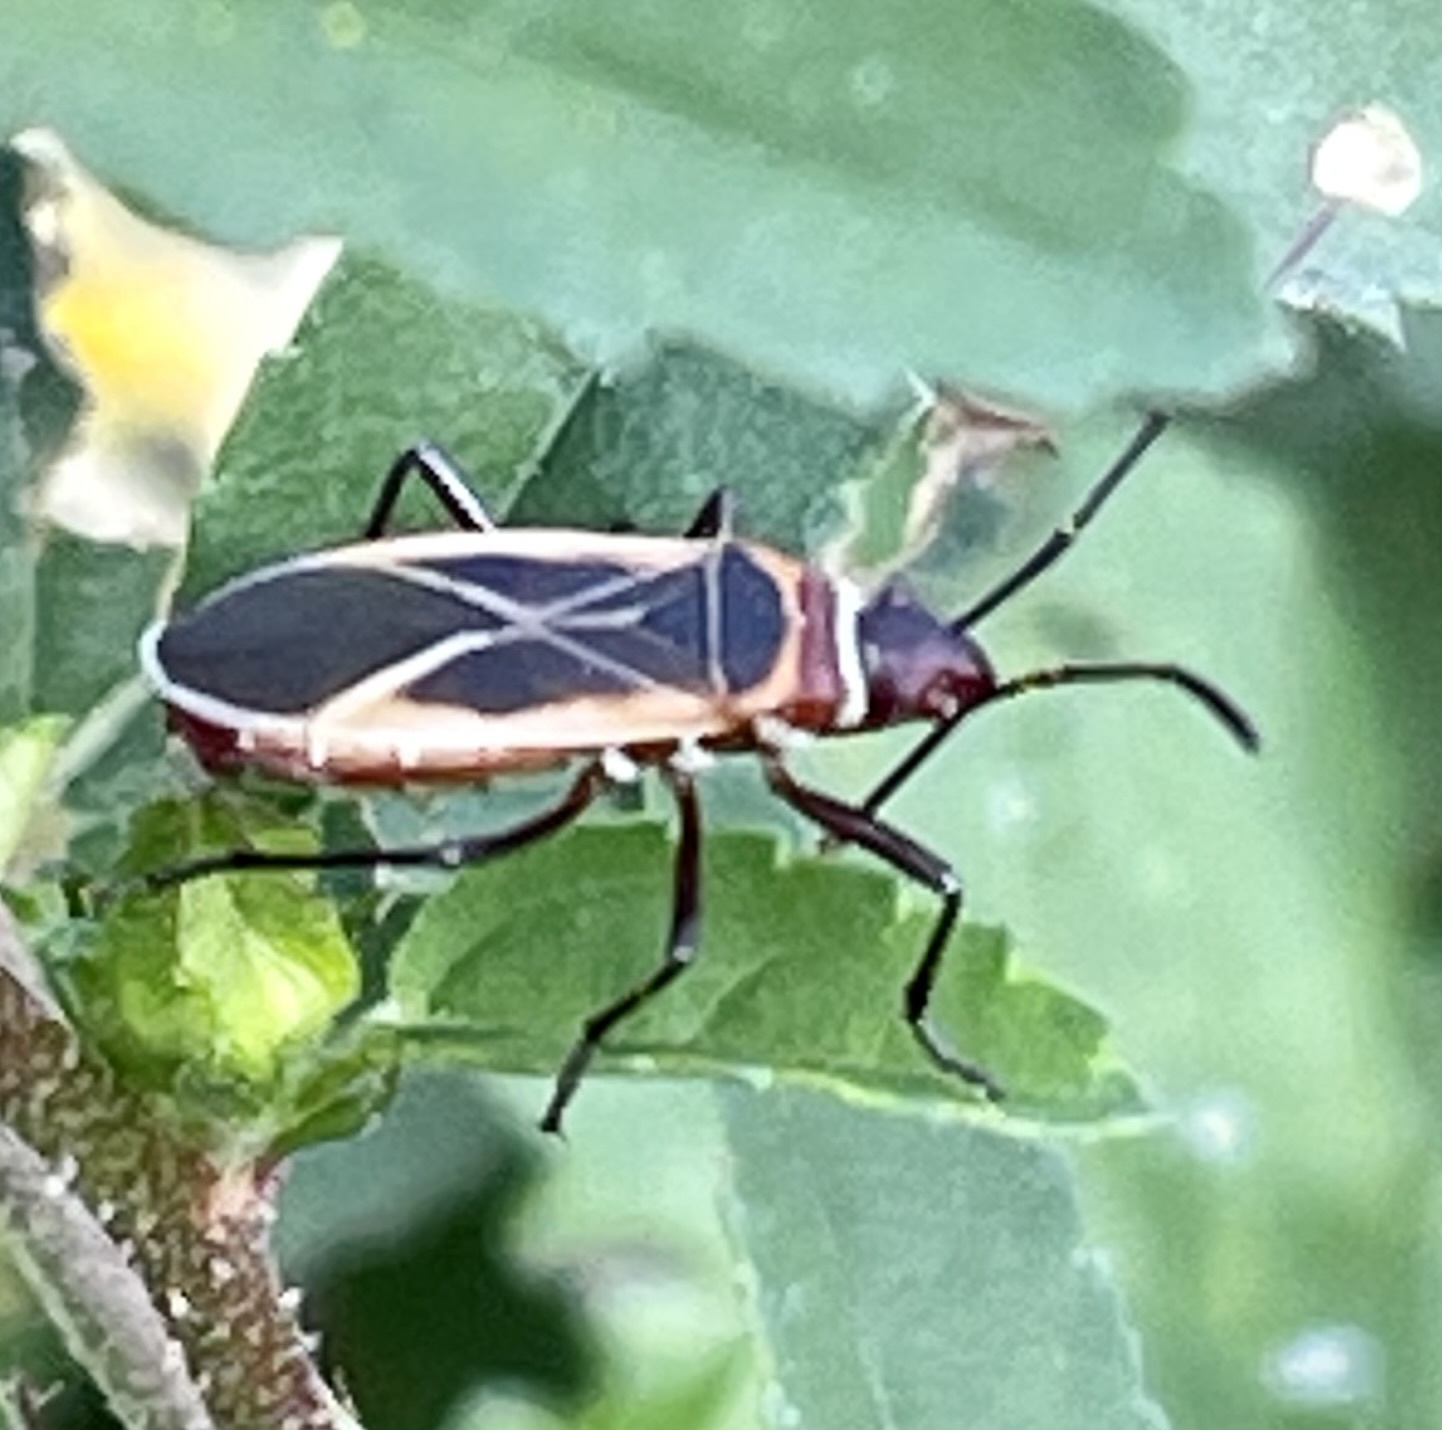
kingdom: Animalia
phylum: Arthropoda
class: Insecta
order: Hemiptera
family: Pyrrhocoridae
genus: Dysdercus
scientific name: Dysdercus mimulus
